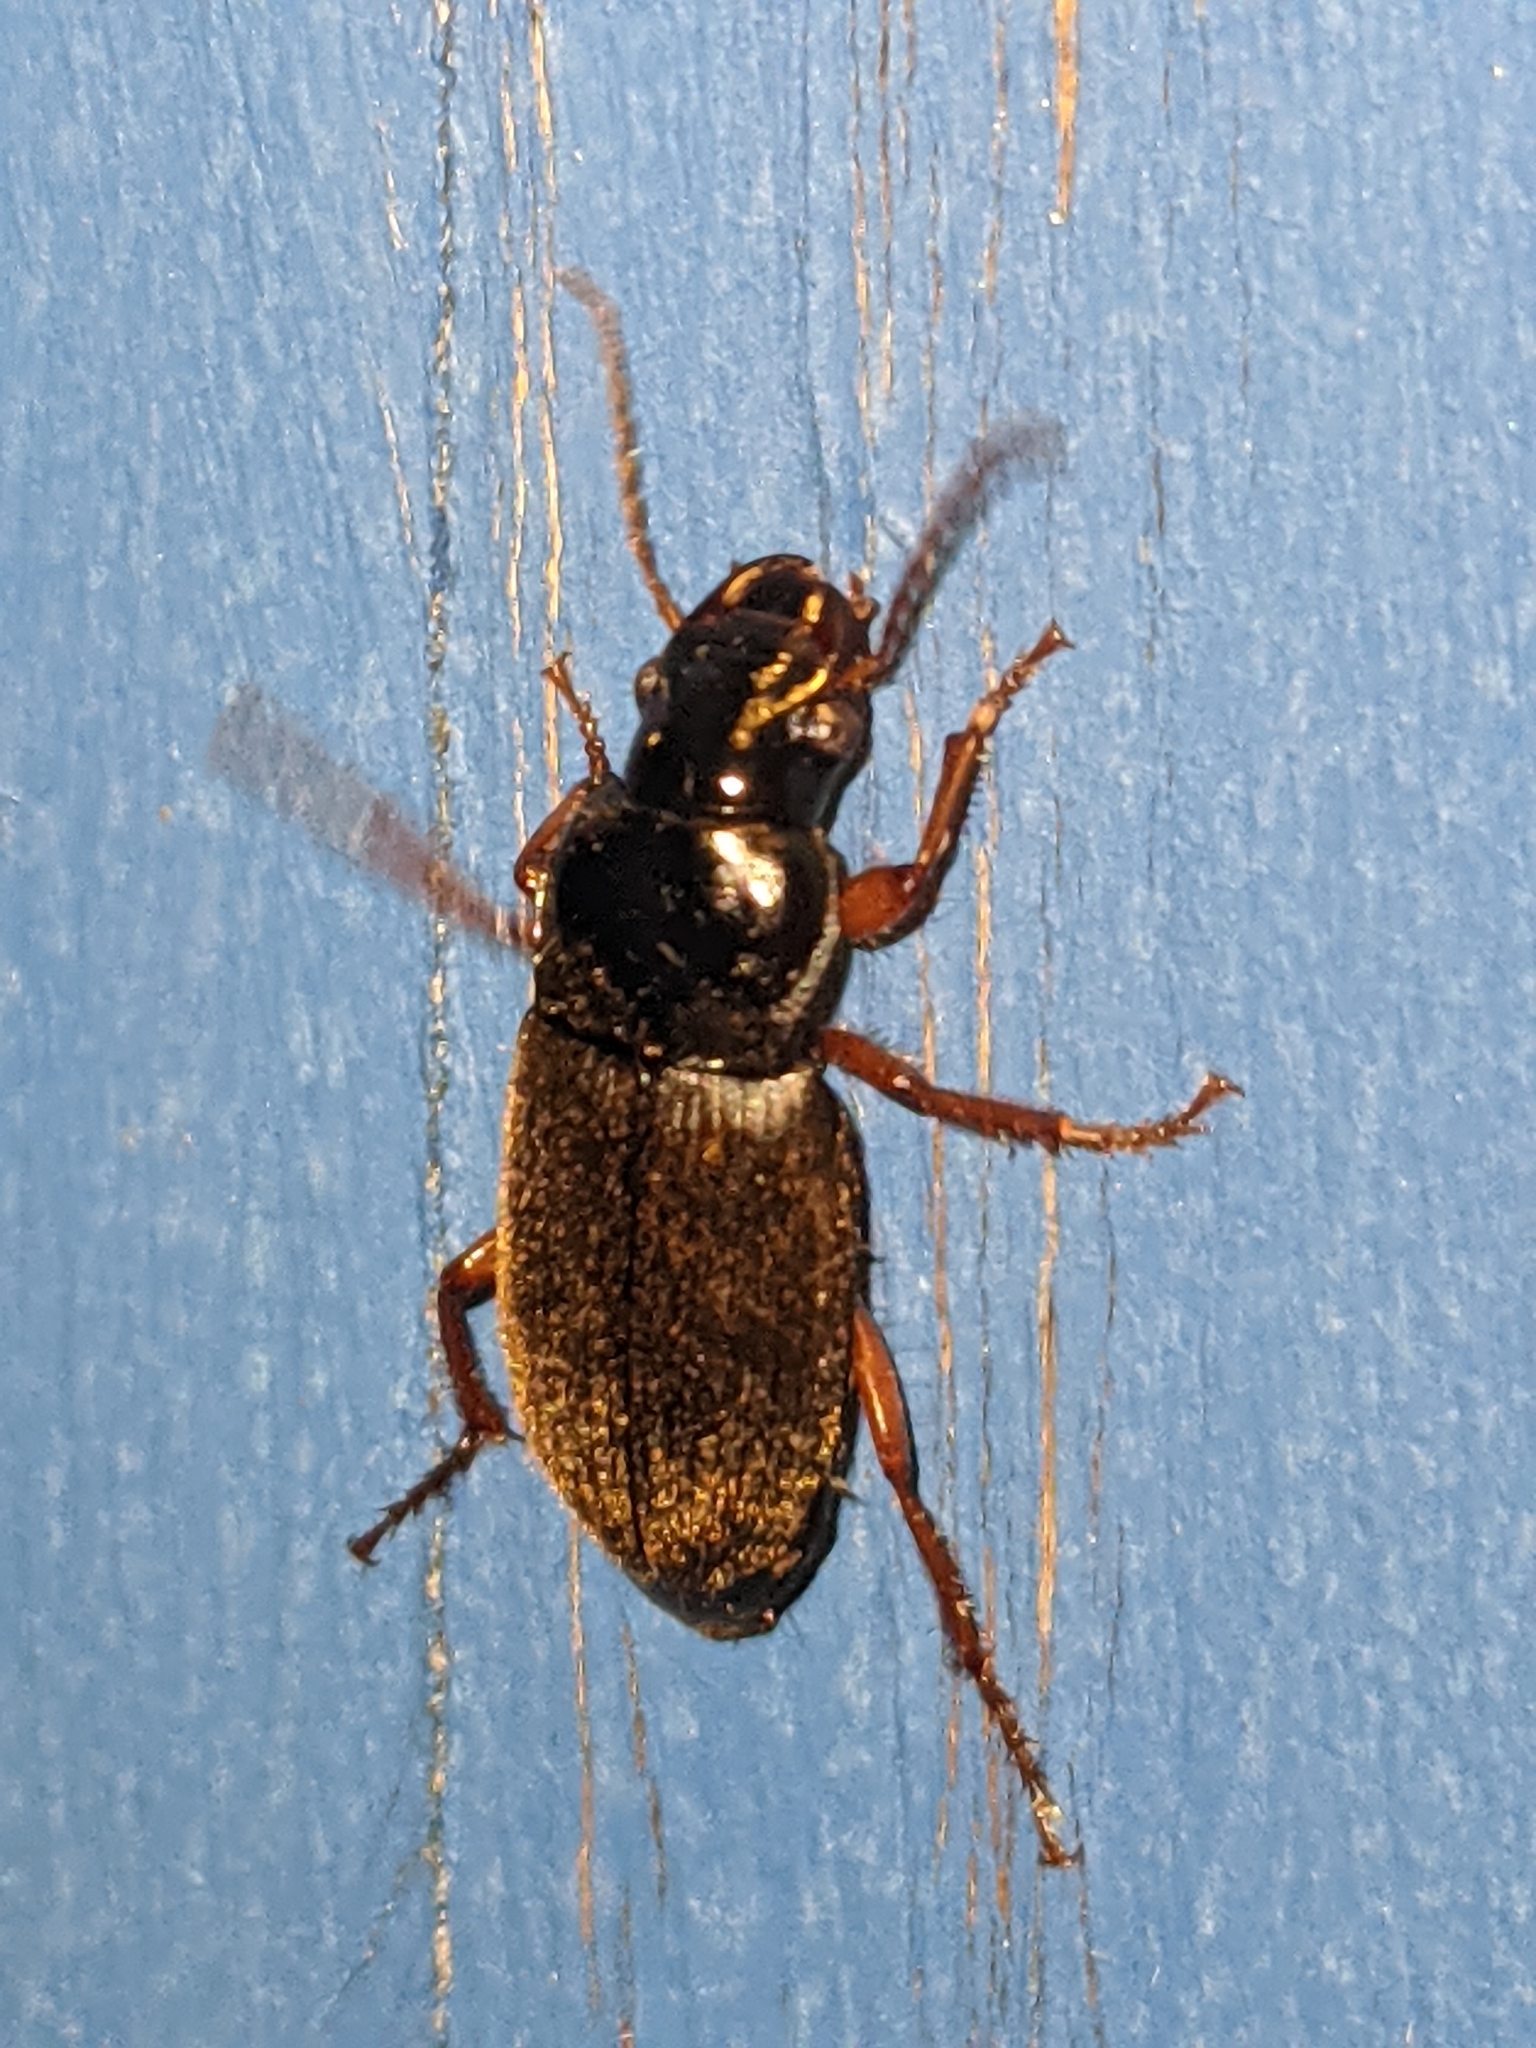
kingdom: Animalia
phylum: Arthropoda
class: Insecta
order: Coleoptera
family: Carabidae
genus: Harpalus
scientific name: Harpalus rufipes
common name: Strawberry harp ground beetle
